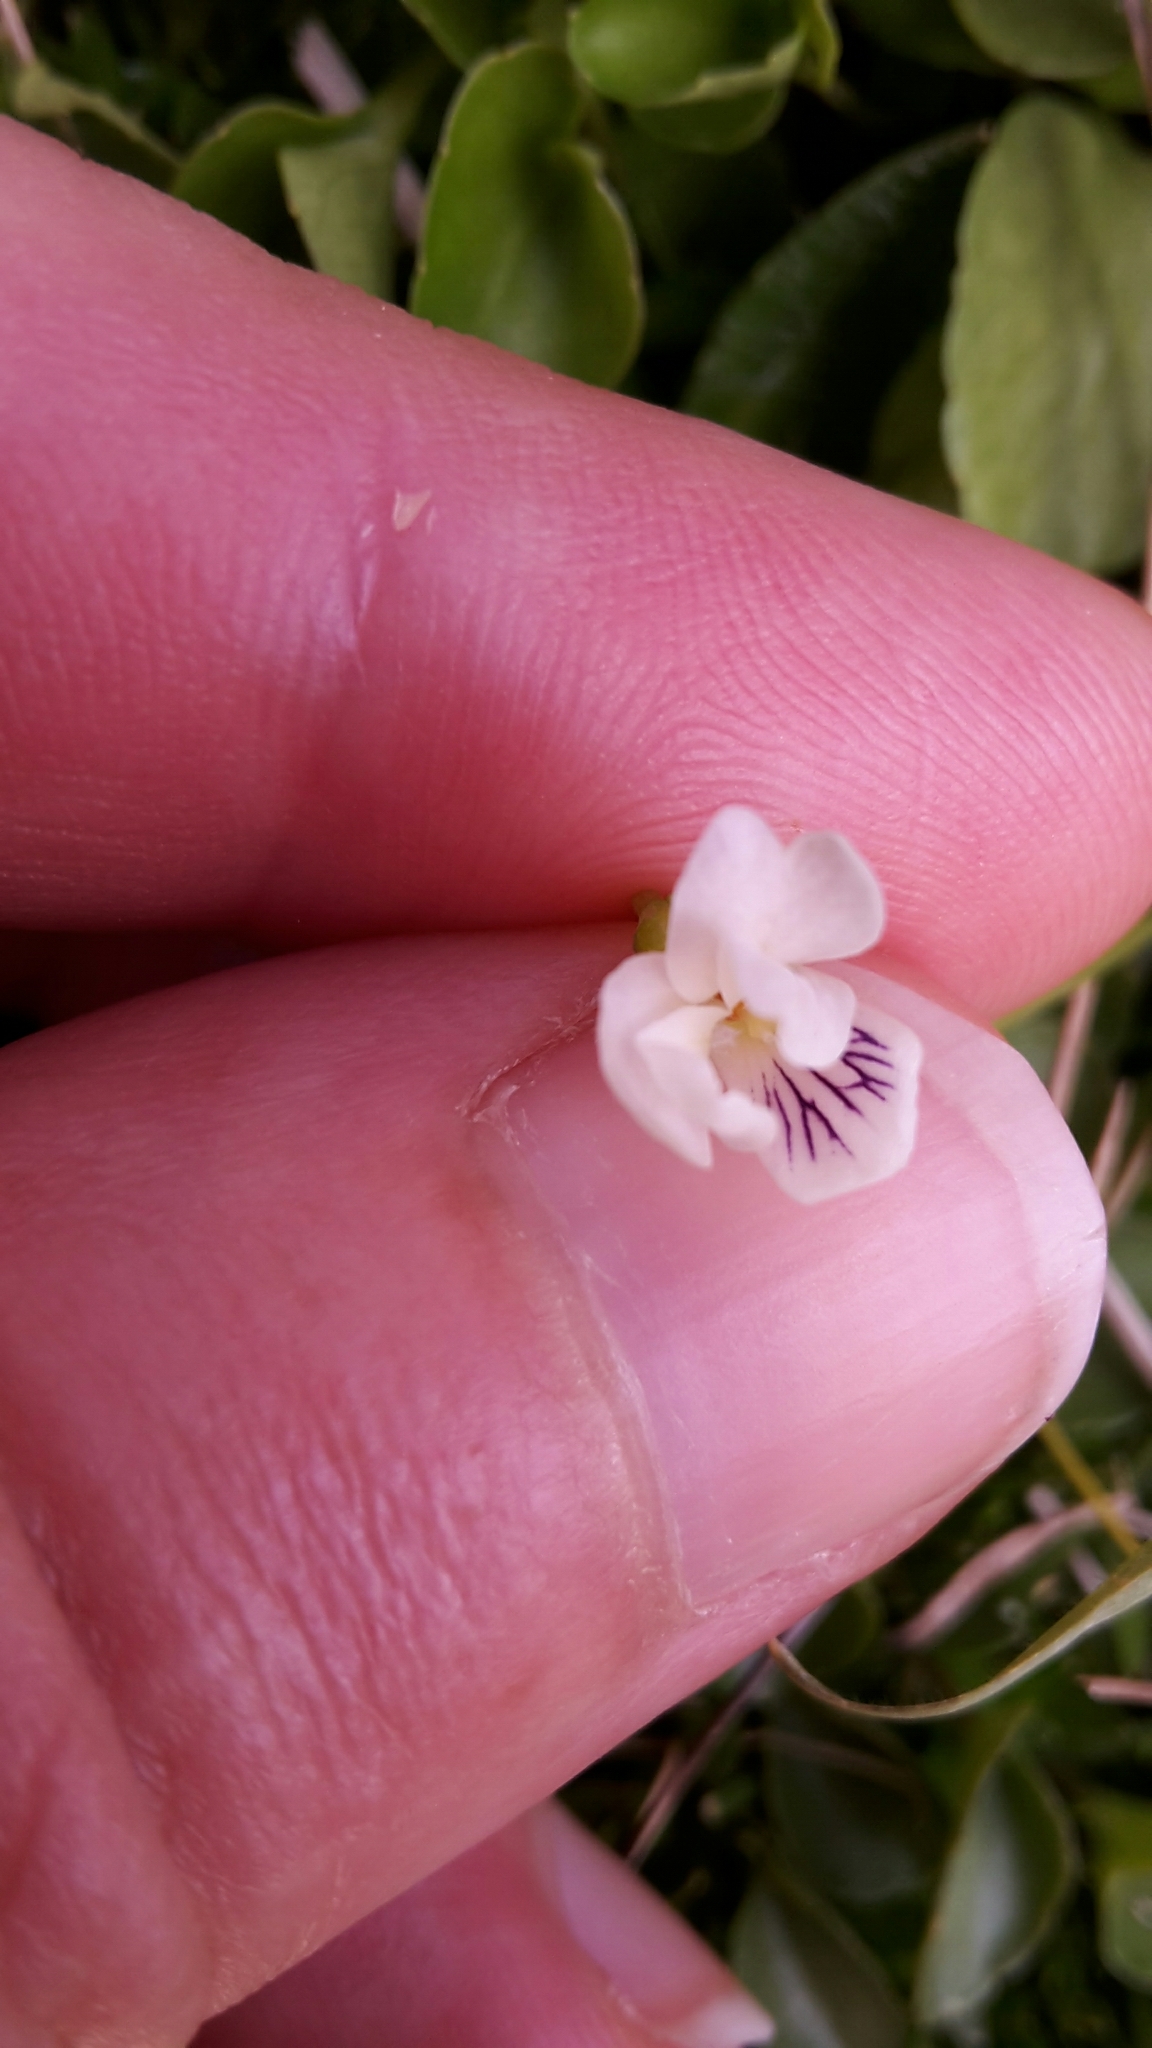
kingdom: Plantae
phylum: Tracheophyta
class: Magnoliopsida
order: Malpighiales
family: Violaceae
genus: Viola
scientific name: Viola cunninghamii
